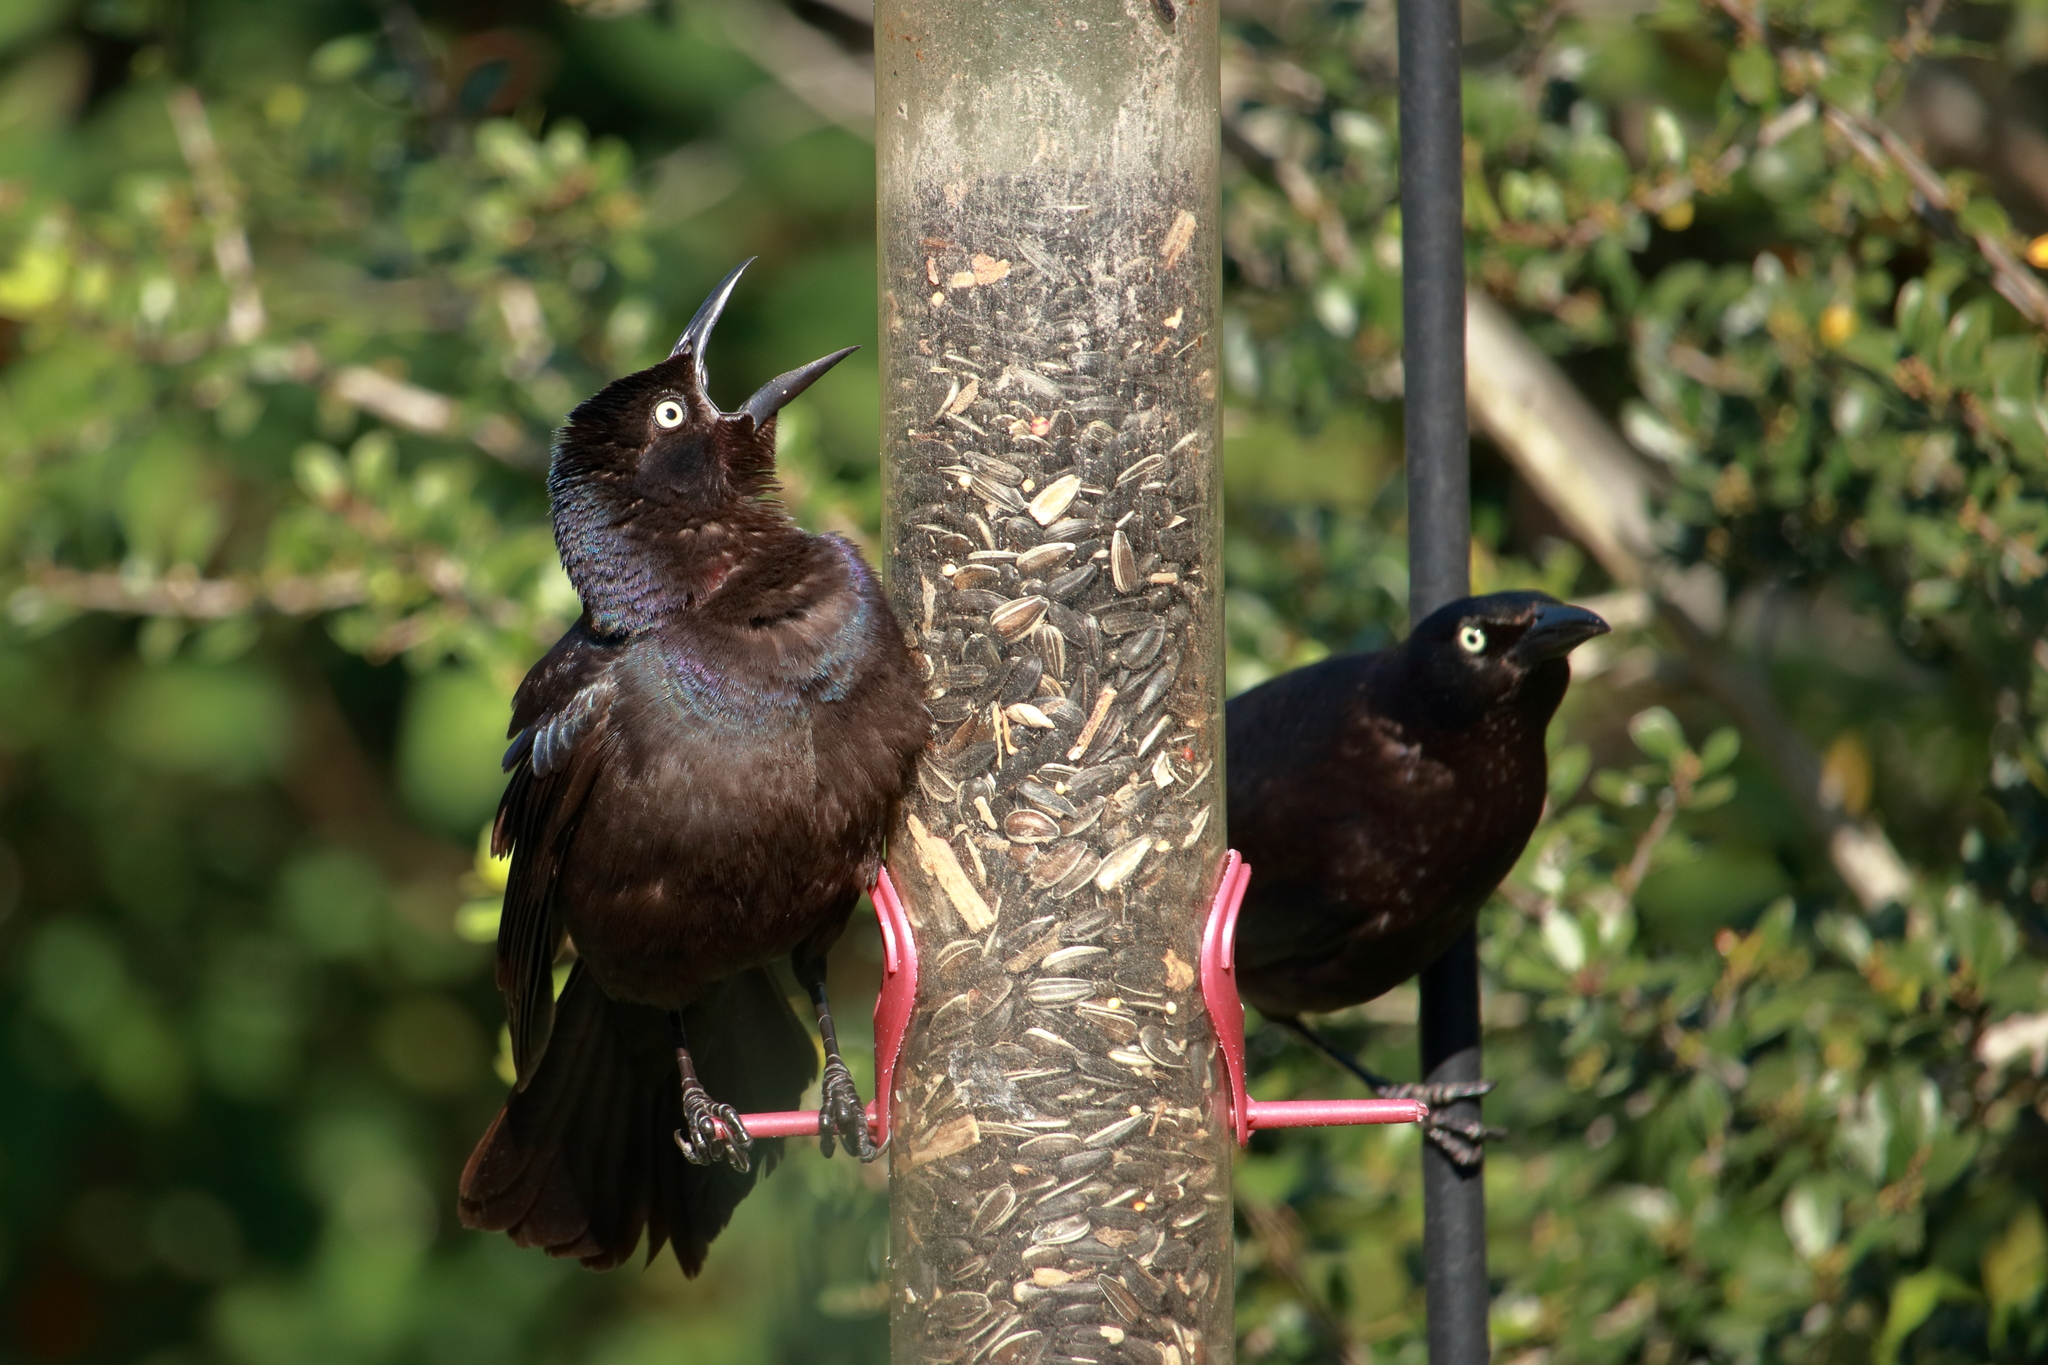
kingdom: Animalia
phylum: Chordata
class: Aves
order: Passeriformes
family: Icteridae
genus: Quiscalus
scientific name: Quiscalus quiscula
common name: Common grackle
